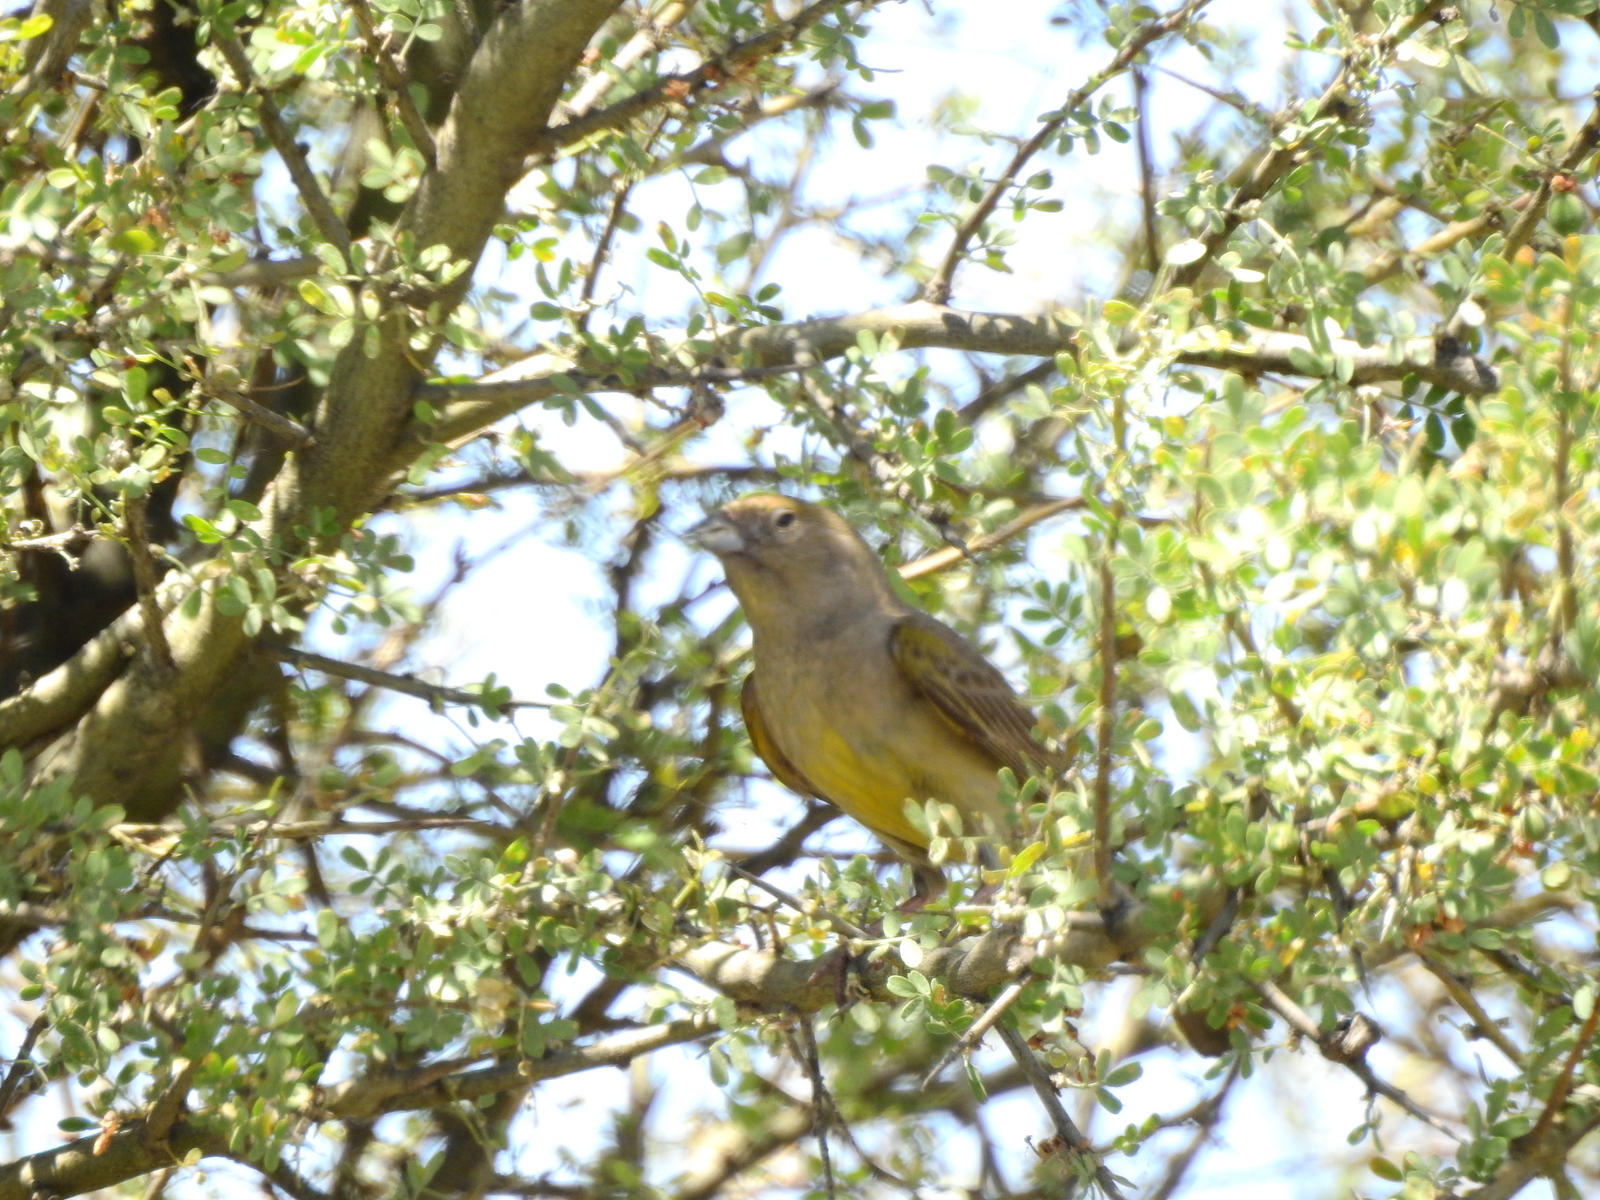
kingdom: Animalia
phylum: Chordata
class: Aves
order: Passeriformes
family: Thraupidae
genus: Sicalis
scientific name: Sicalis mendozae
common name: Monte yellow-finch
